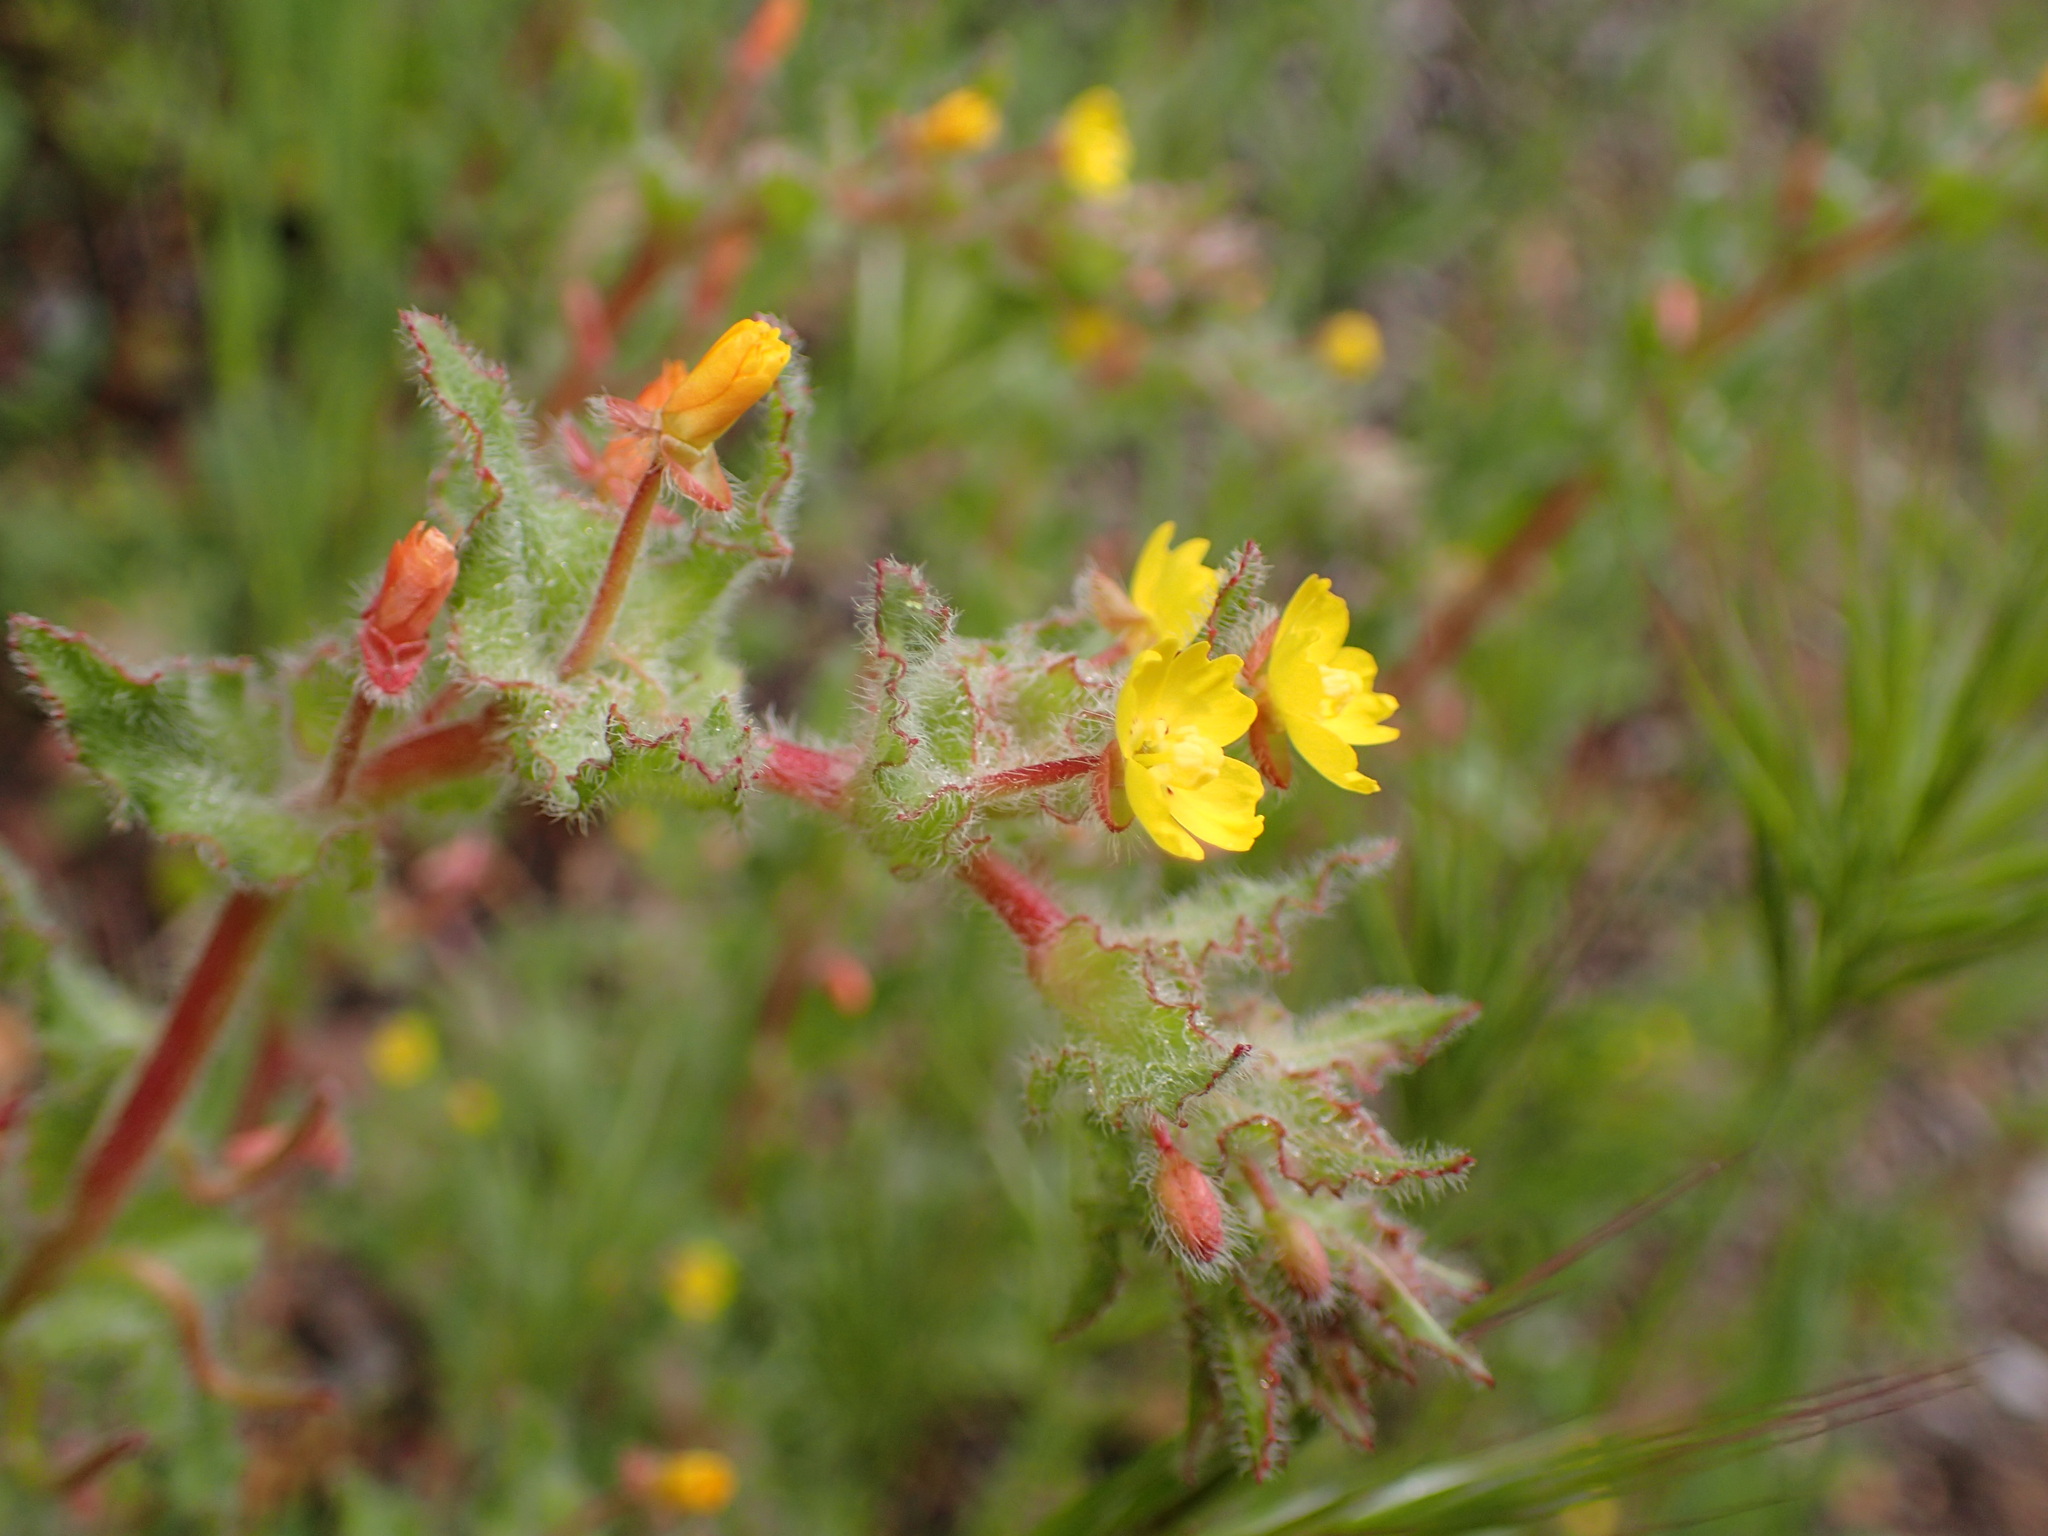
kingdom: Plantae
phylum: Tracheophyta
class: Magnoliopsida
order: Myrtales
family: Onagraceae
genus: Camissoniopsis
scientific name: Camissoniopsis micrantha
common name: Miniature suncup
